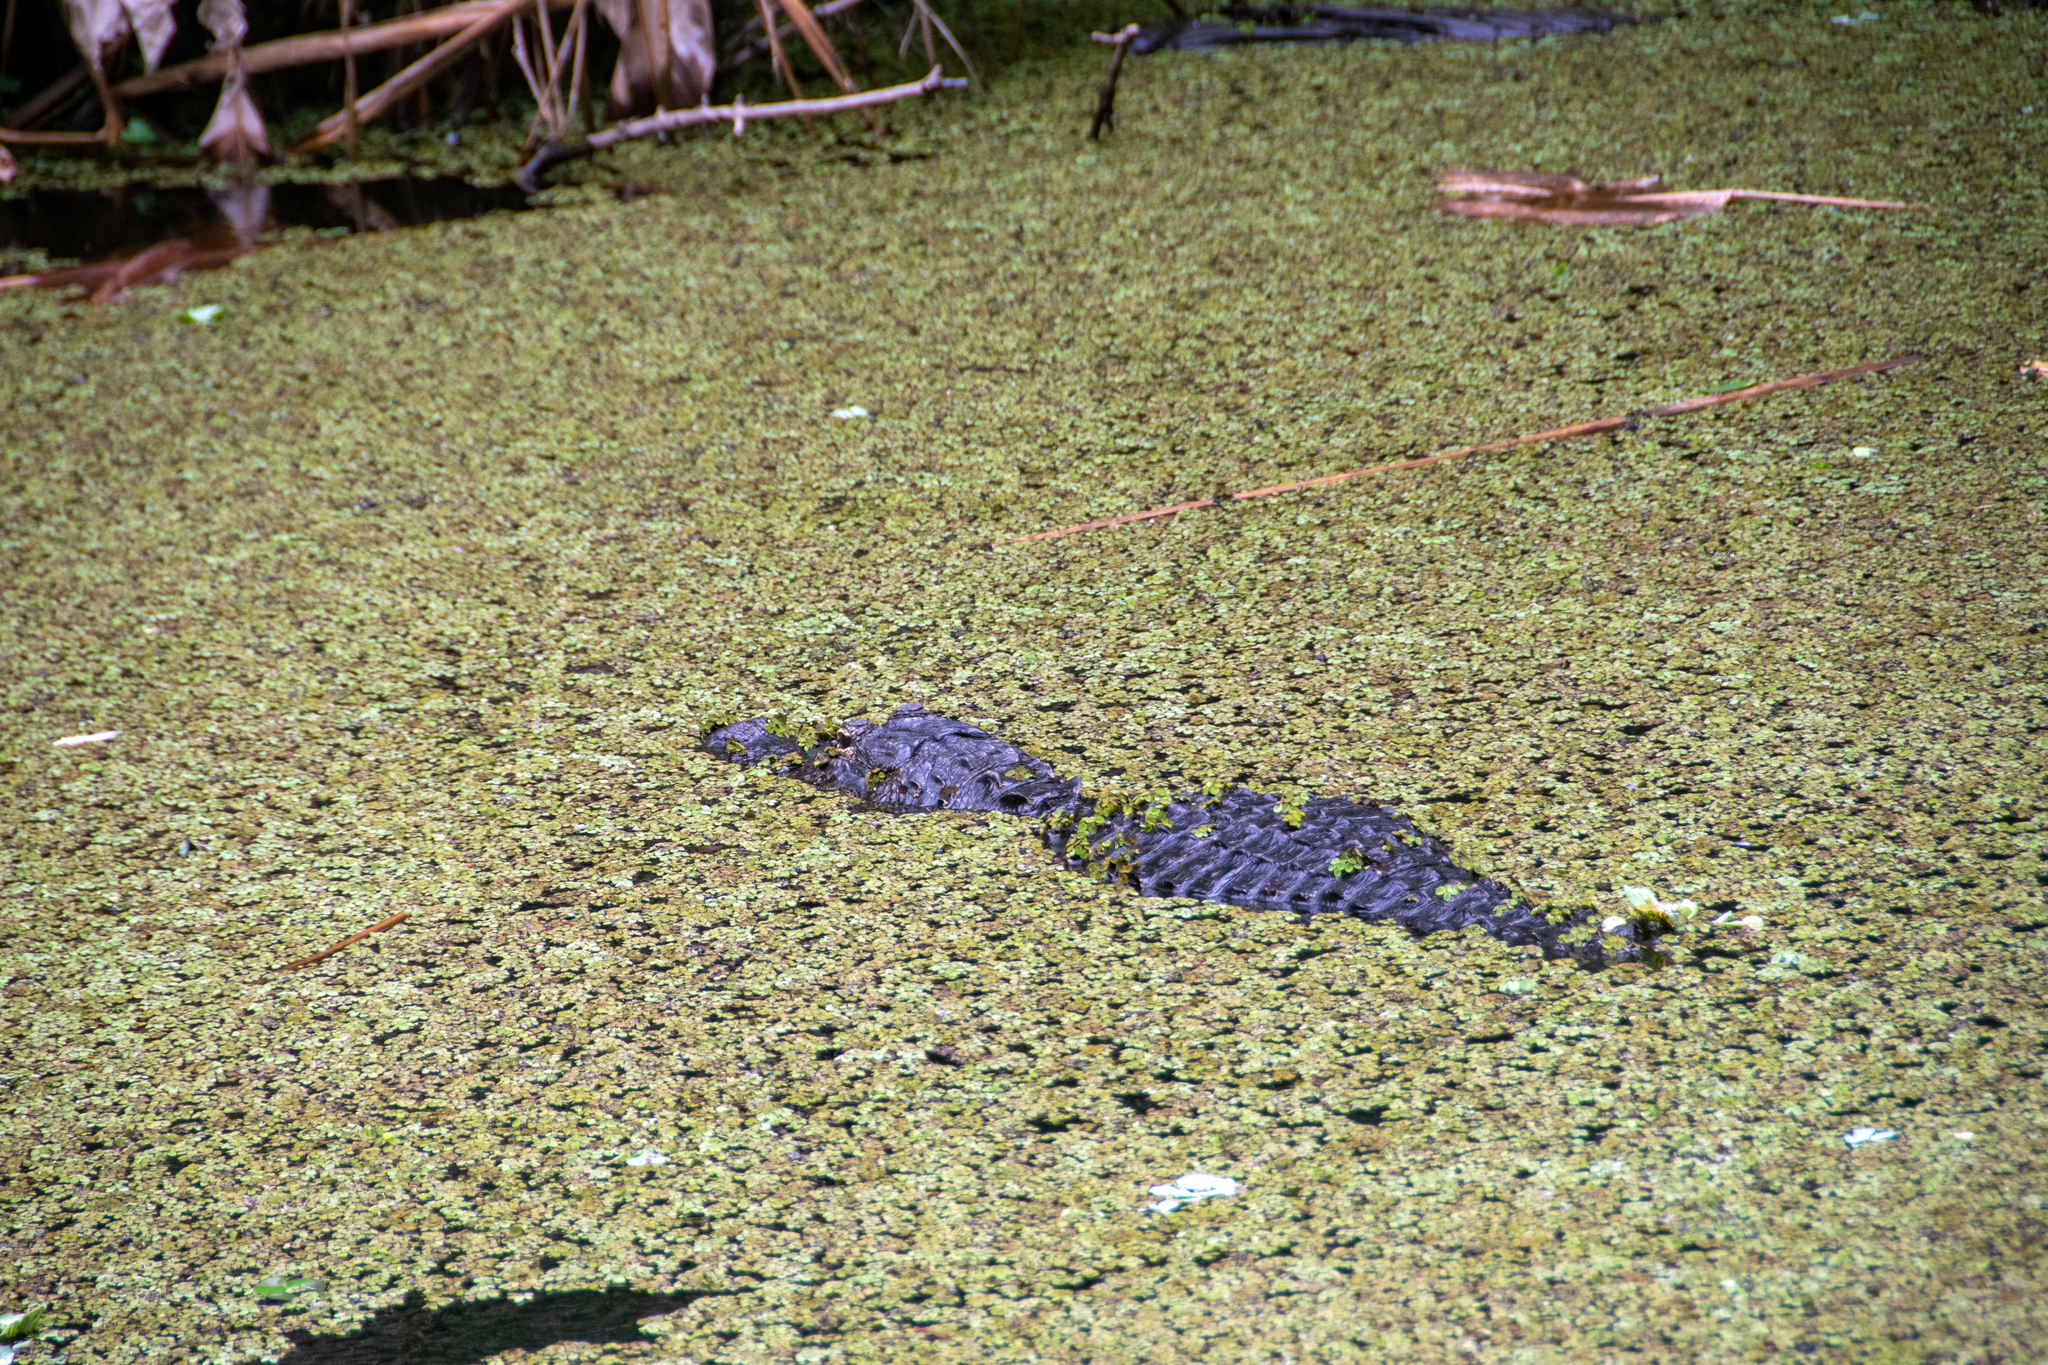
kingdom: Animalia
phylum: Chordata
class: Crocodylia
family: Alligatoridae
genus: Alligator
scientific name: Alligator mississippiensis
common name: American alligator
